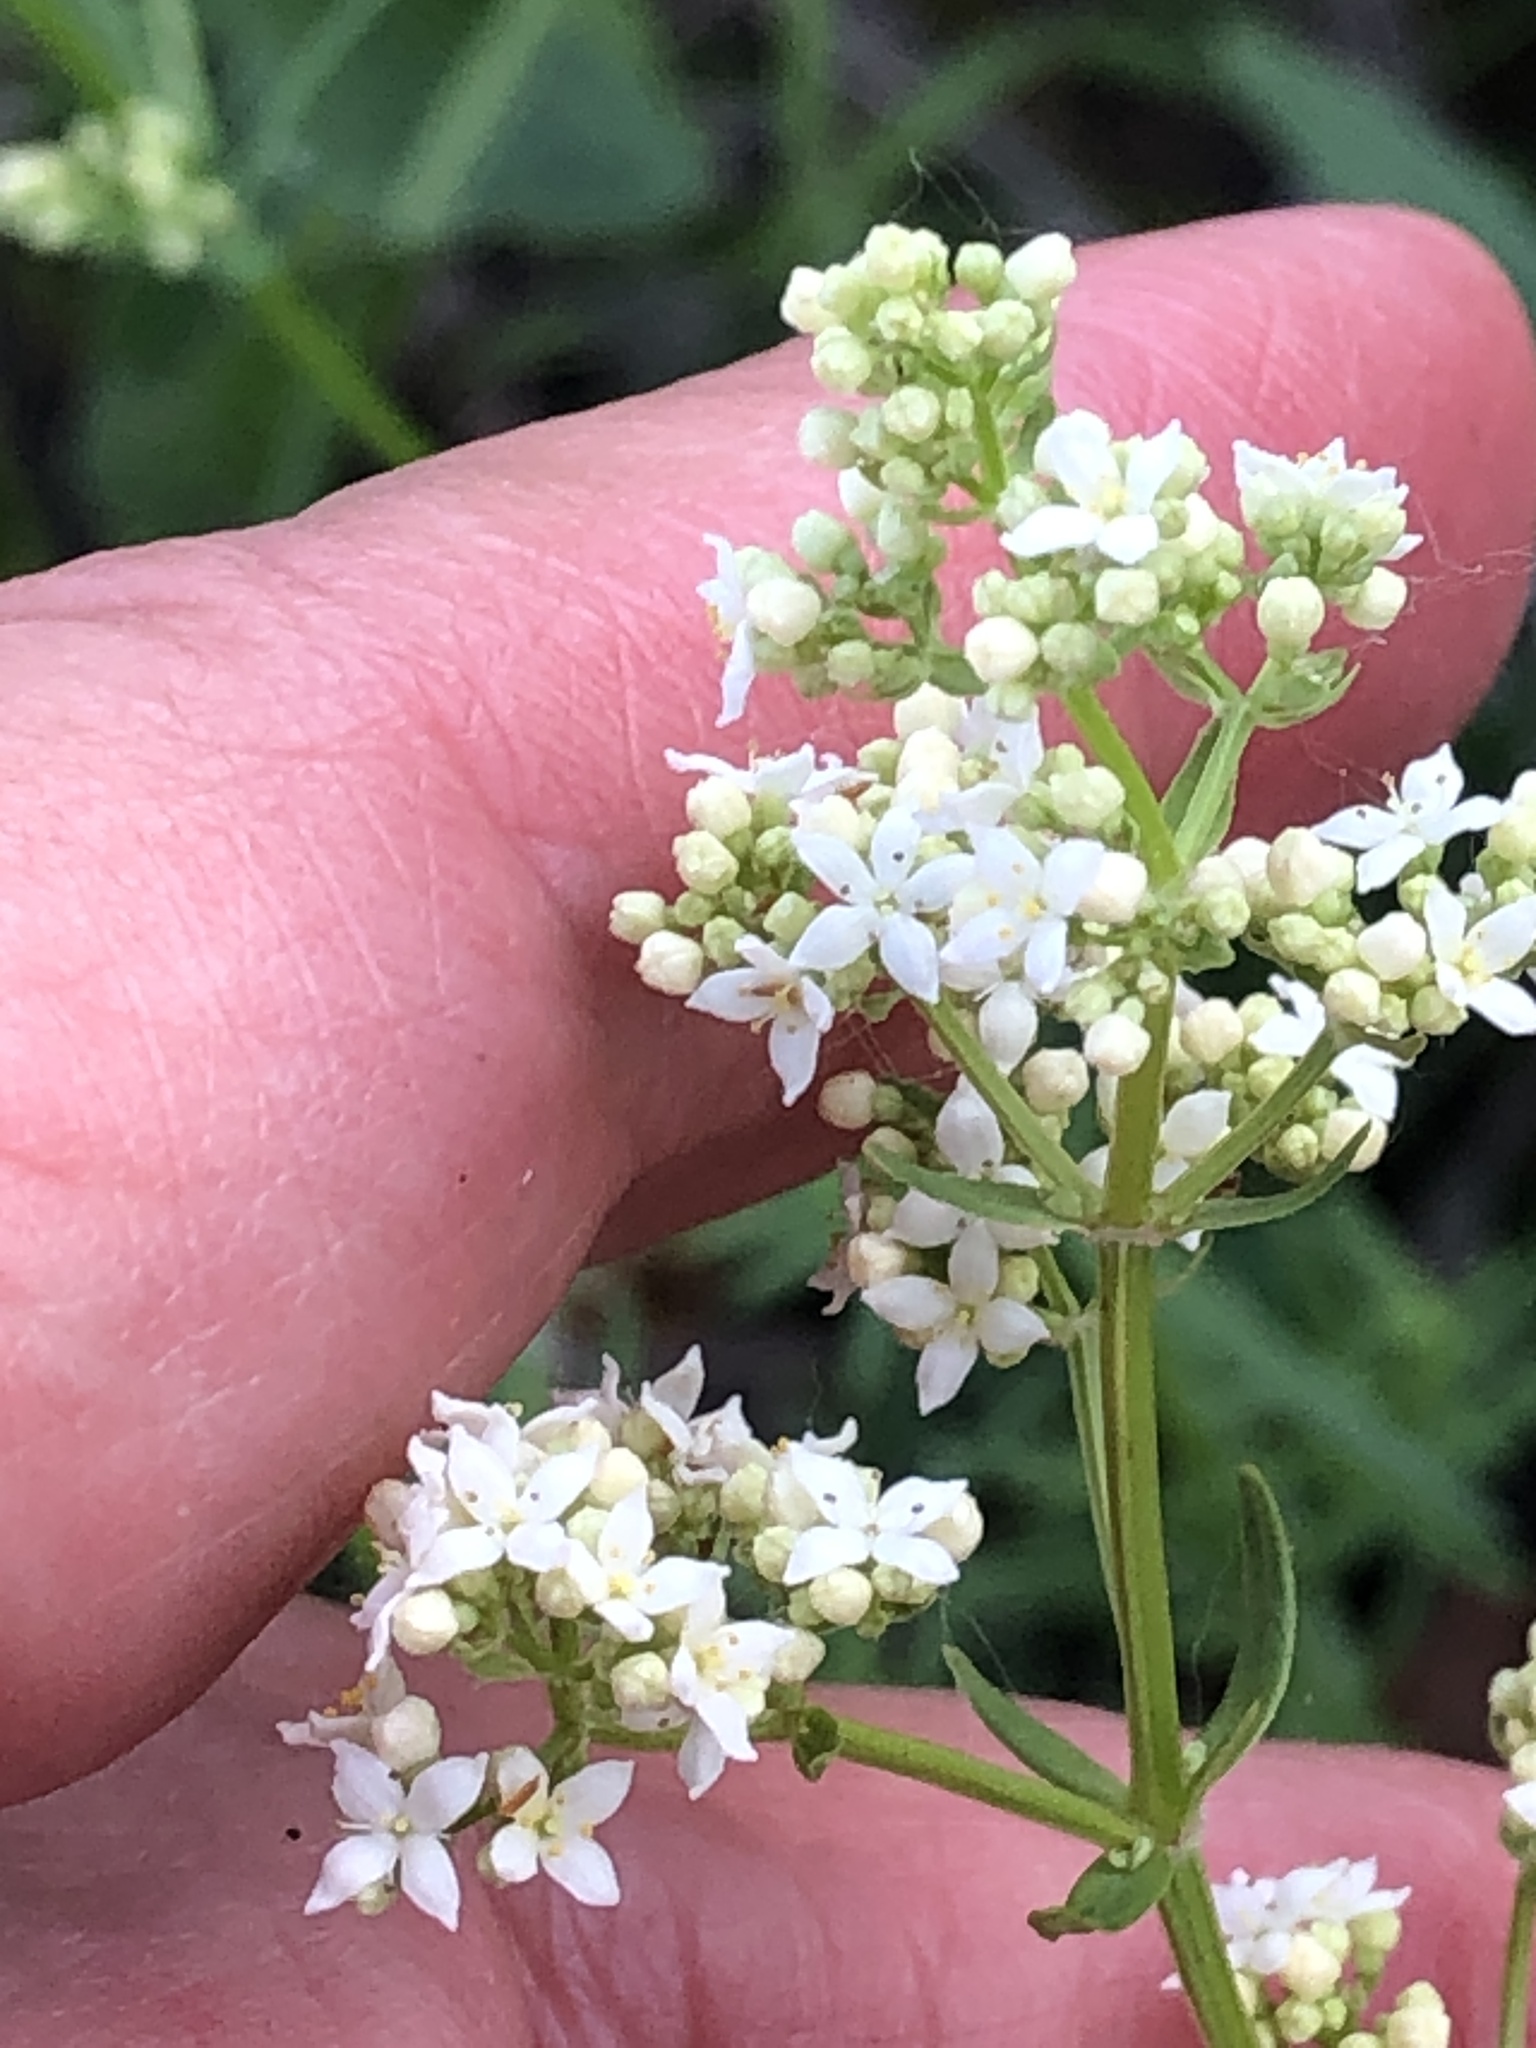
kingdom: Plantae
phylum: Tracheophyta
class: Magnoliopsida
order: Gentianales
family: Rubiaceae
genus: Galium
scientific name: Galium boreale
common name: Northern bedstraw
